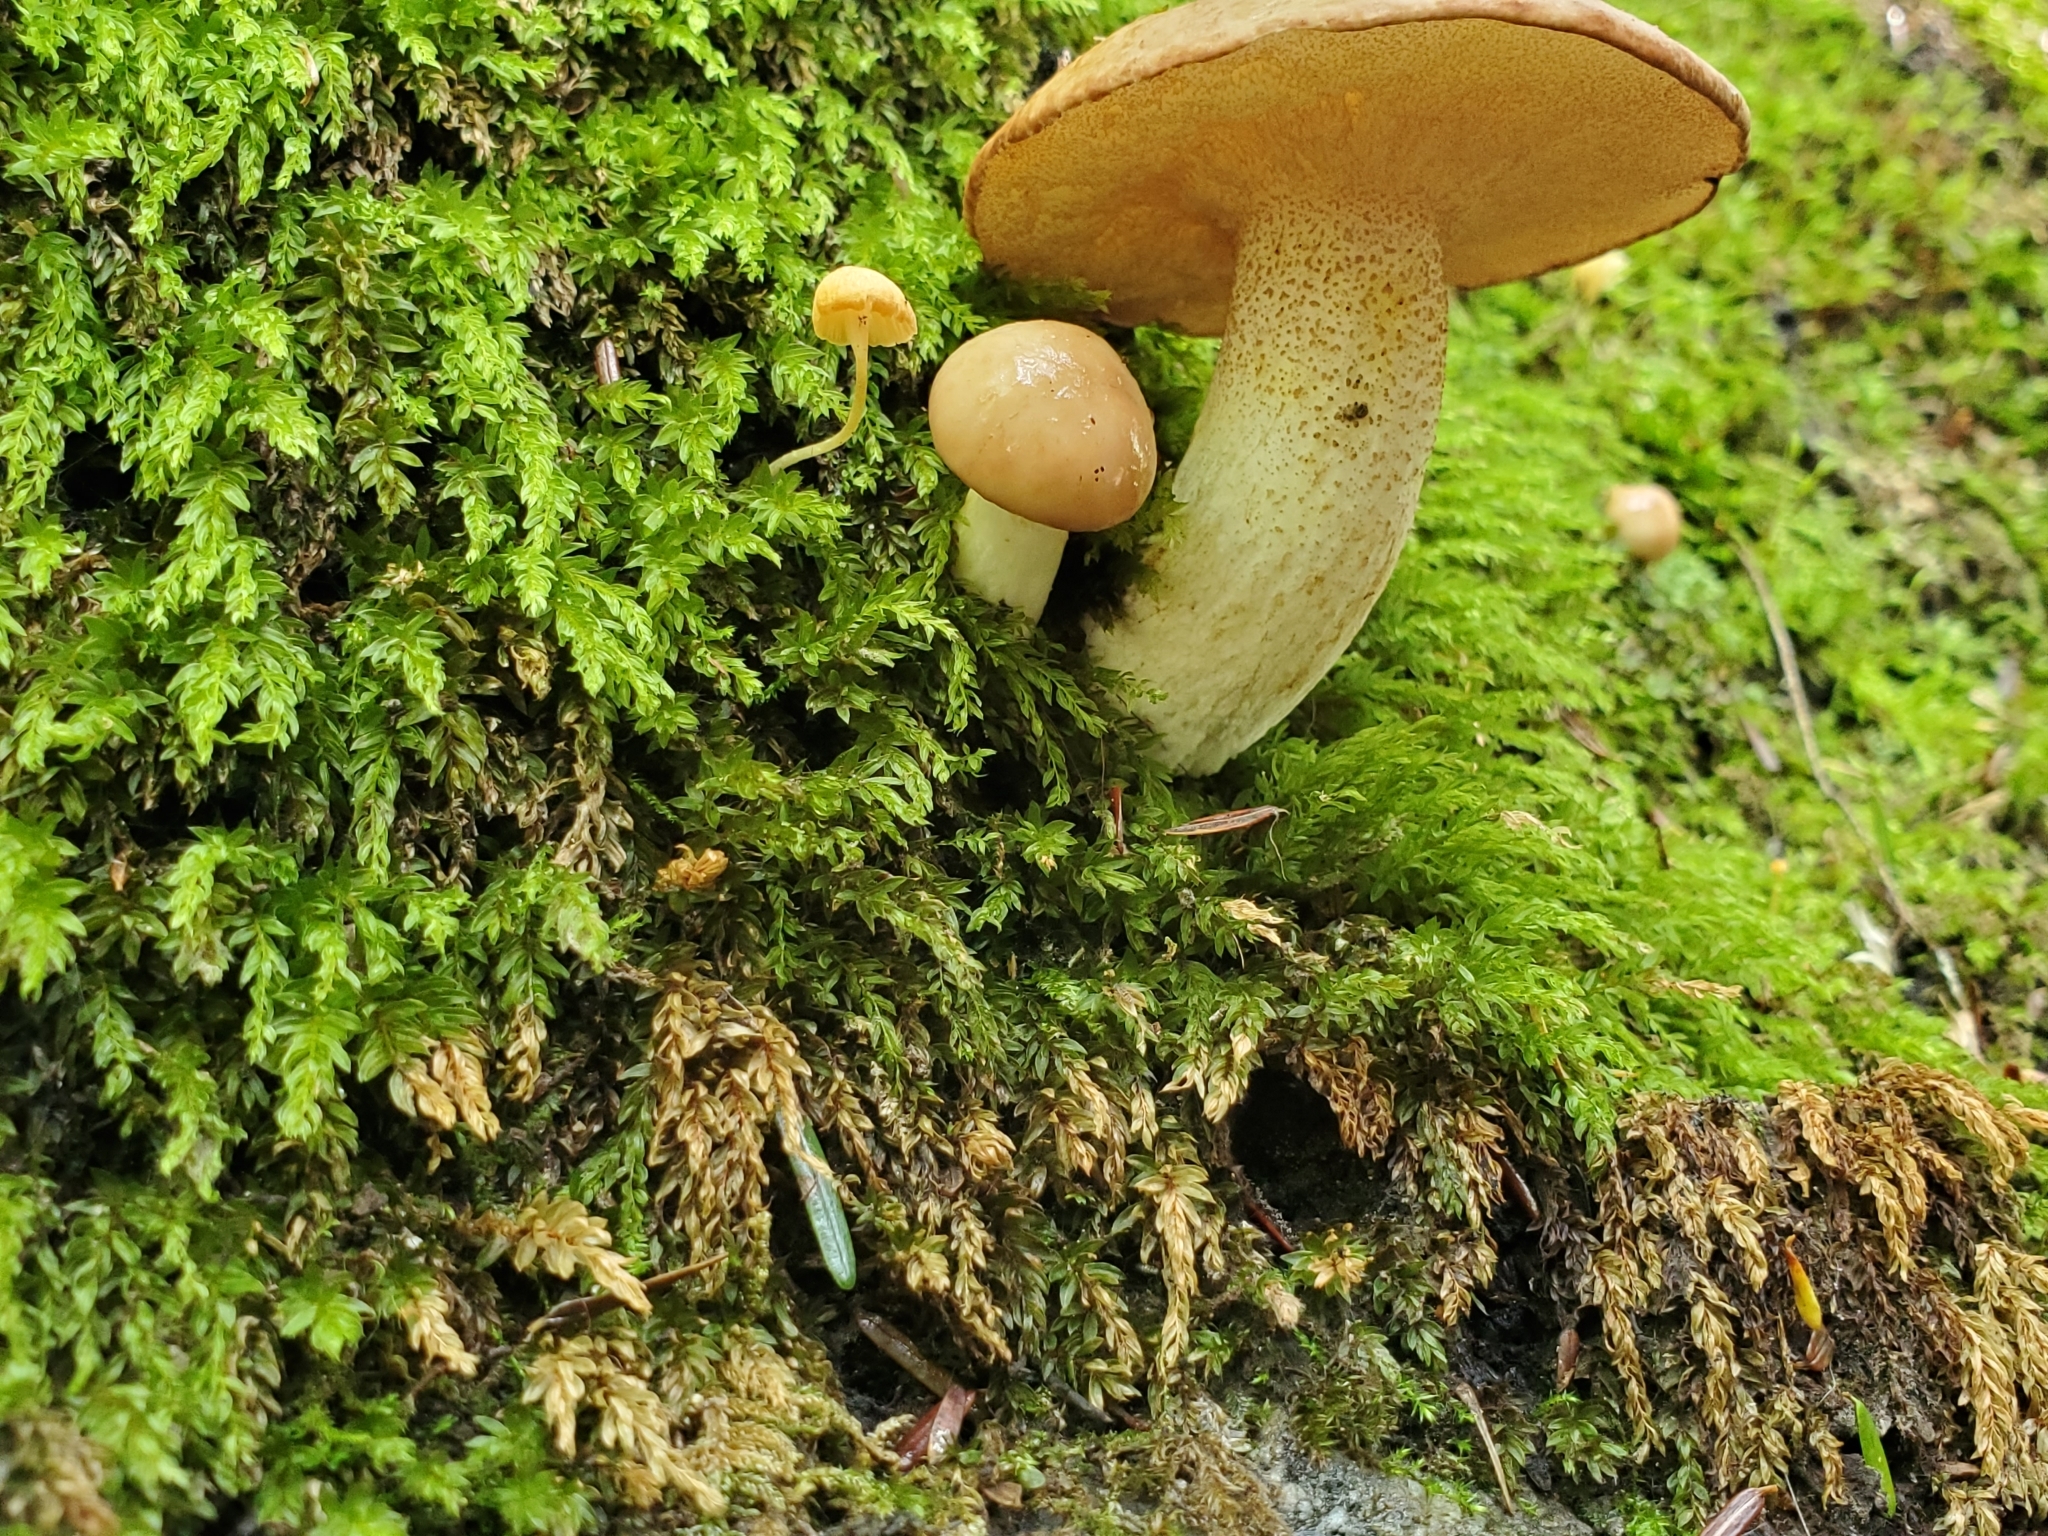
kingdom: Fungi
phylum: Basidiomycota
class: Agaricomycetes
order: Boletales
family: Suillaceae
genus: Suillus
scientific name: Suillus granulatus
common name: Weeping bolete
